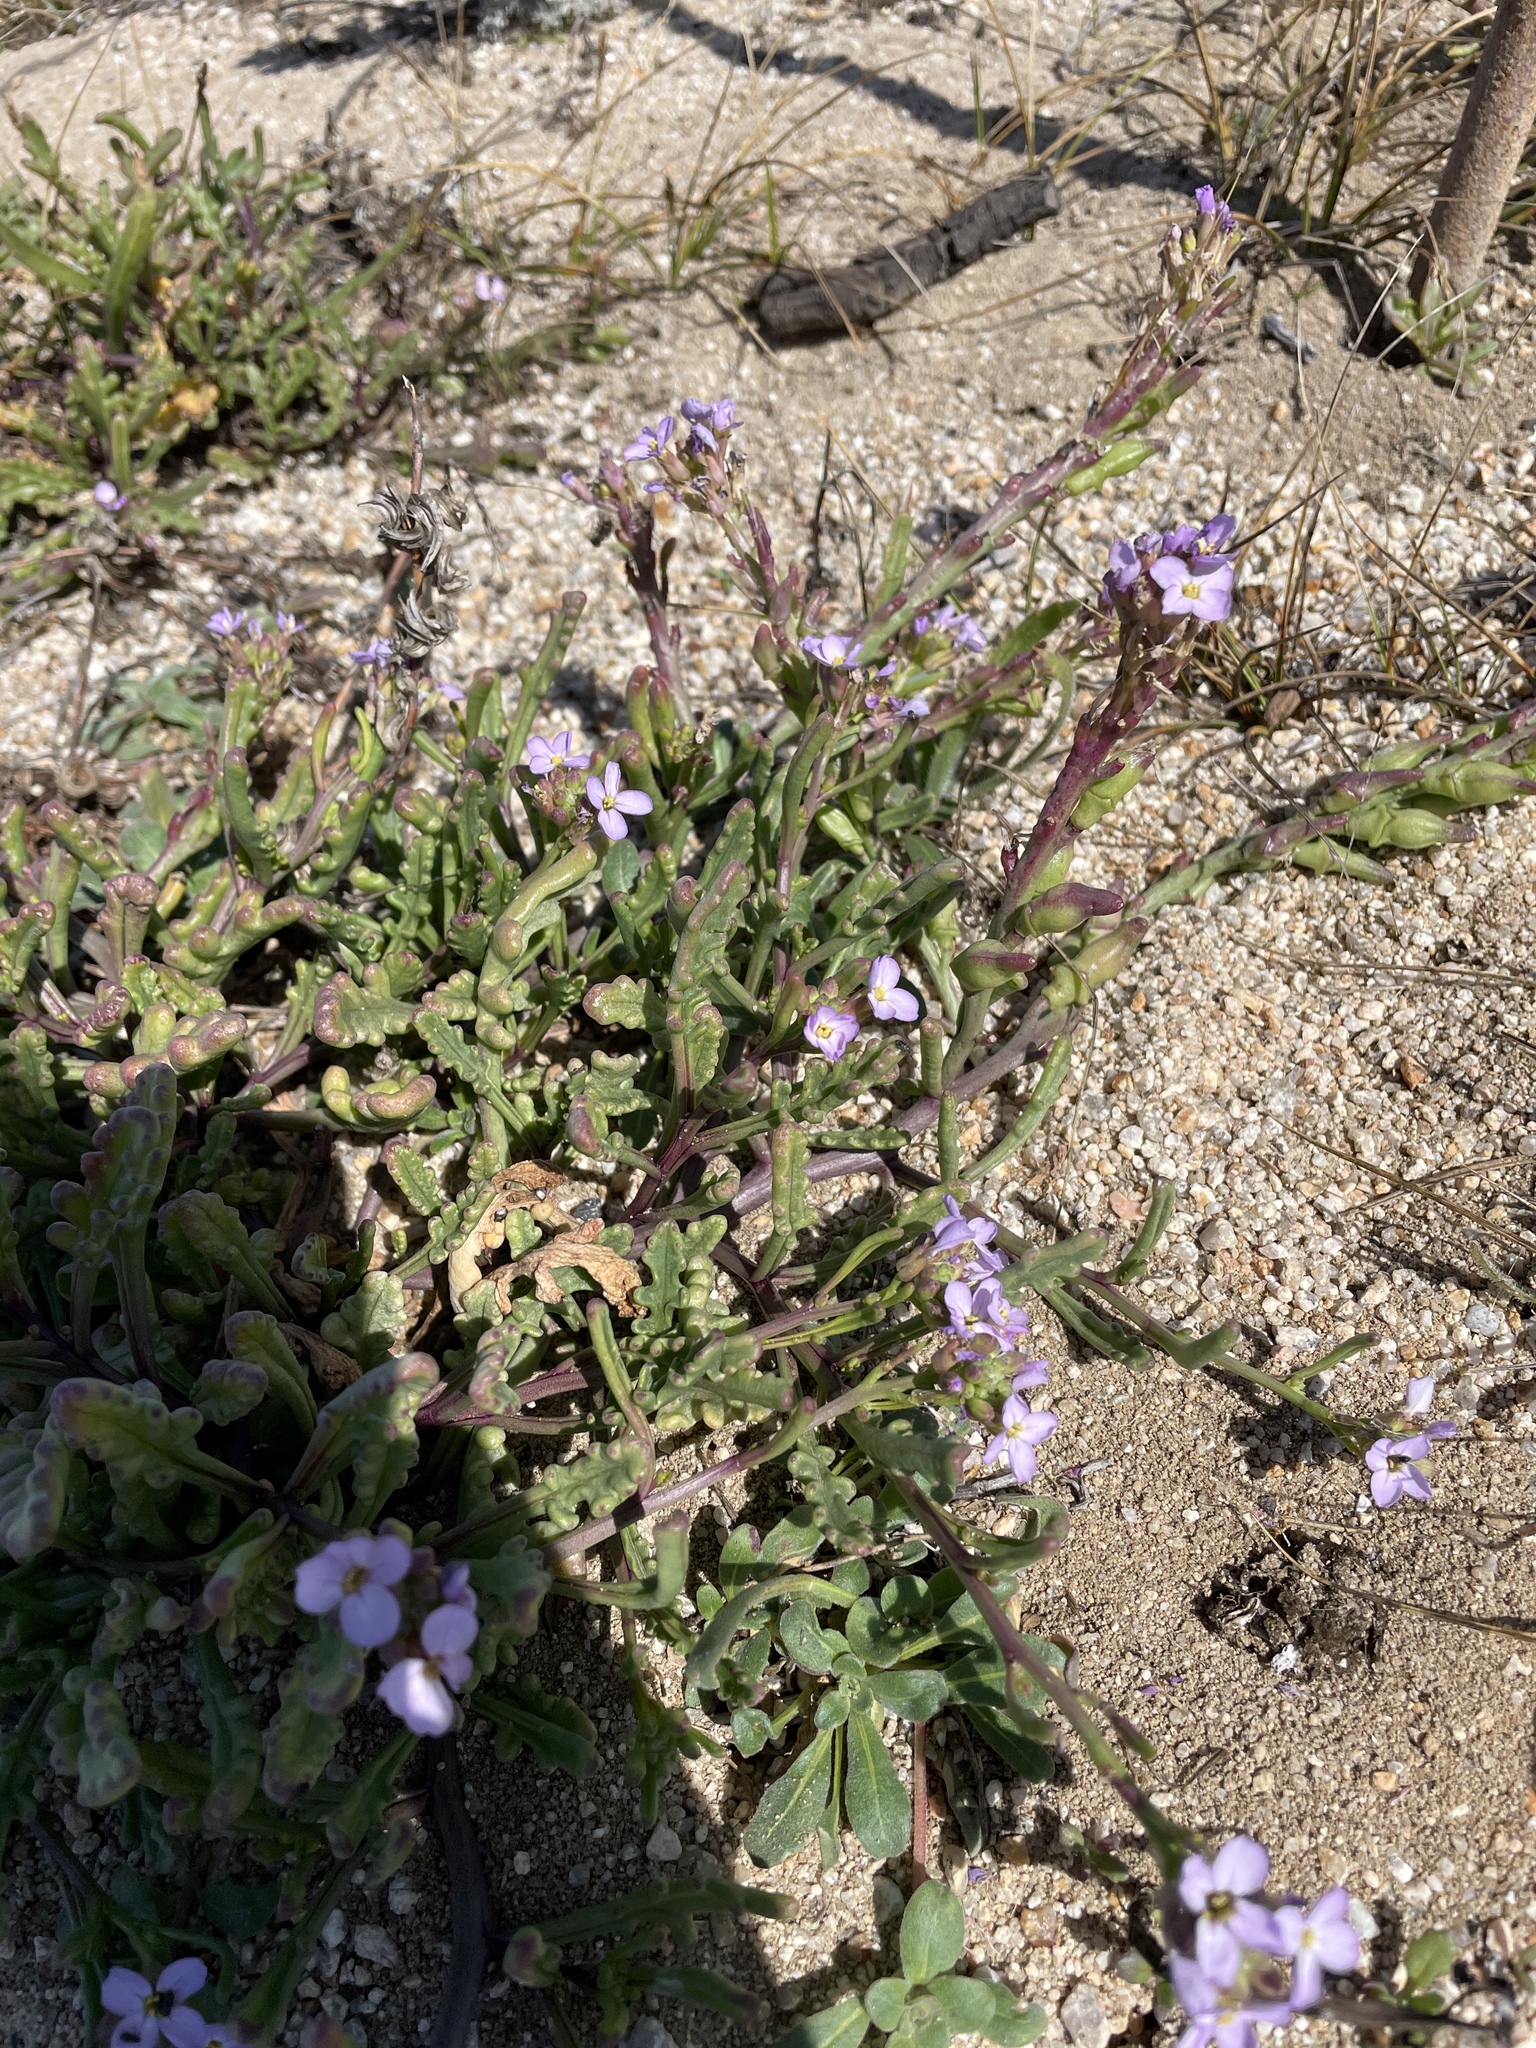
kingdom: Plantae
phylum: Tracheophyta
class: Magnoliopsida
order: Brassicales
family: Brassicaceae
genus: Cakile
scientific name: Cakile maritima
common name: Sea rocket
